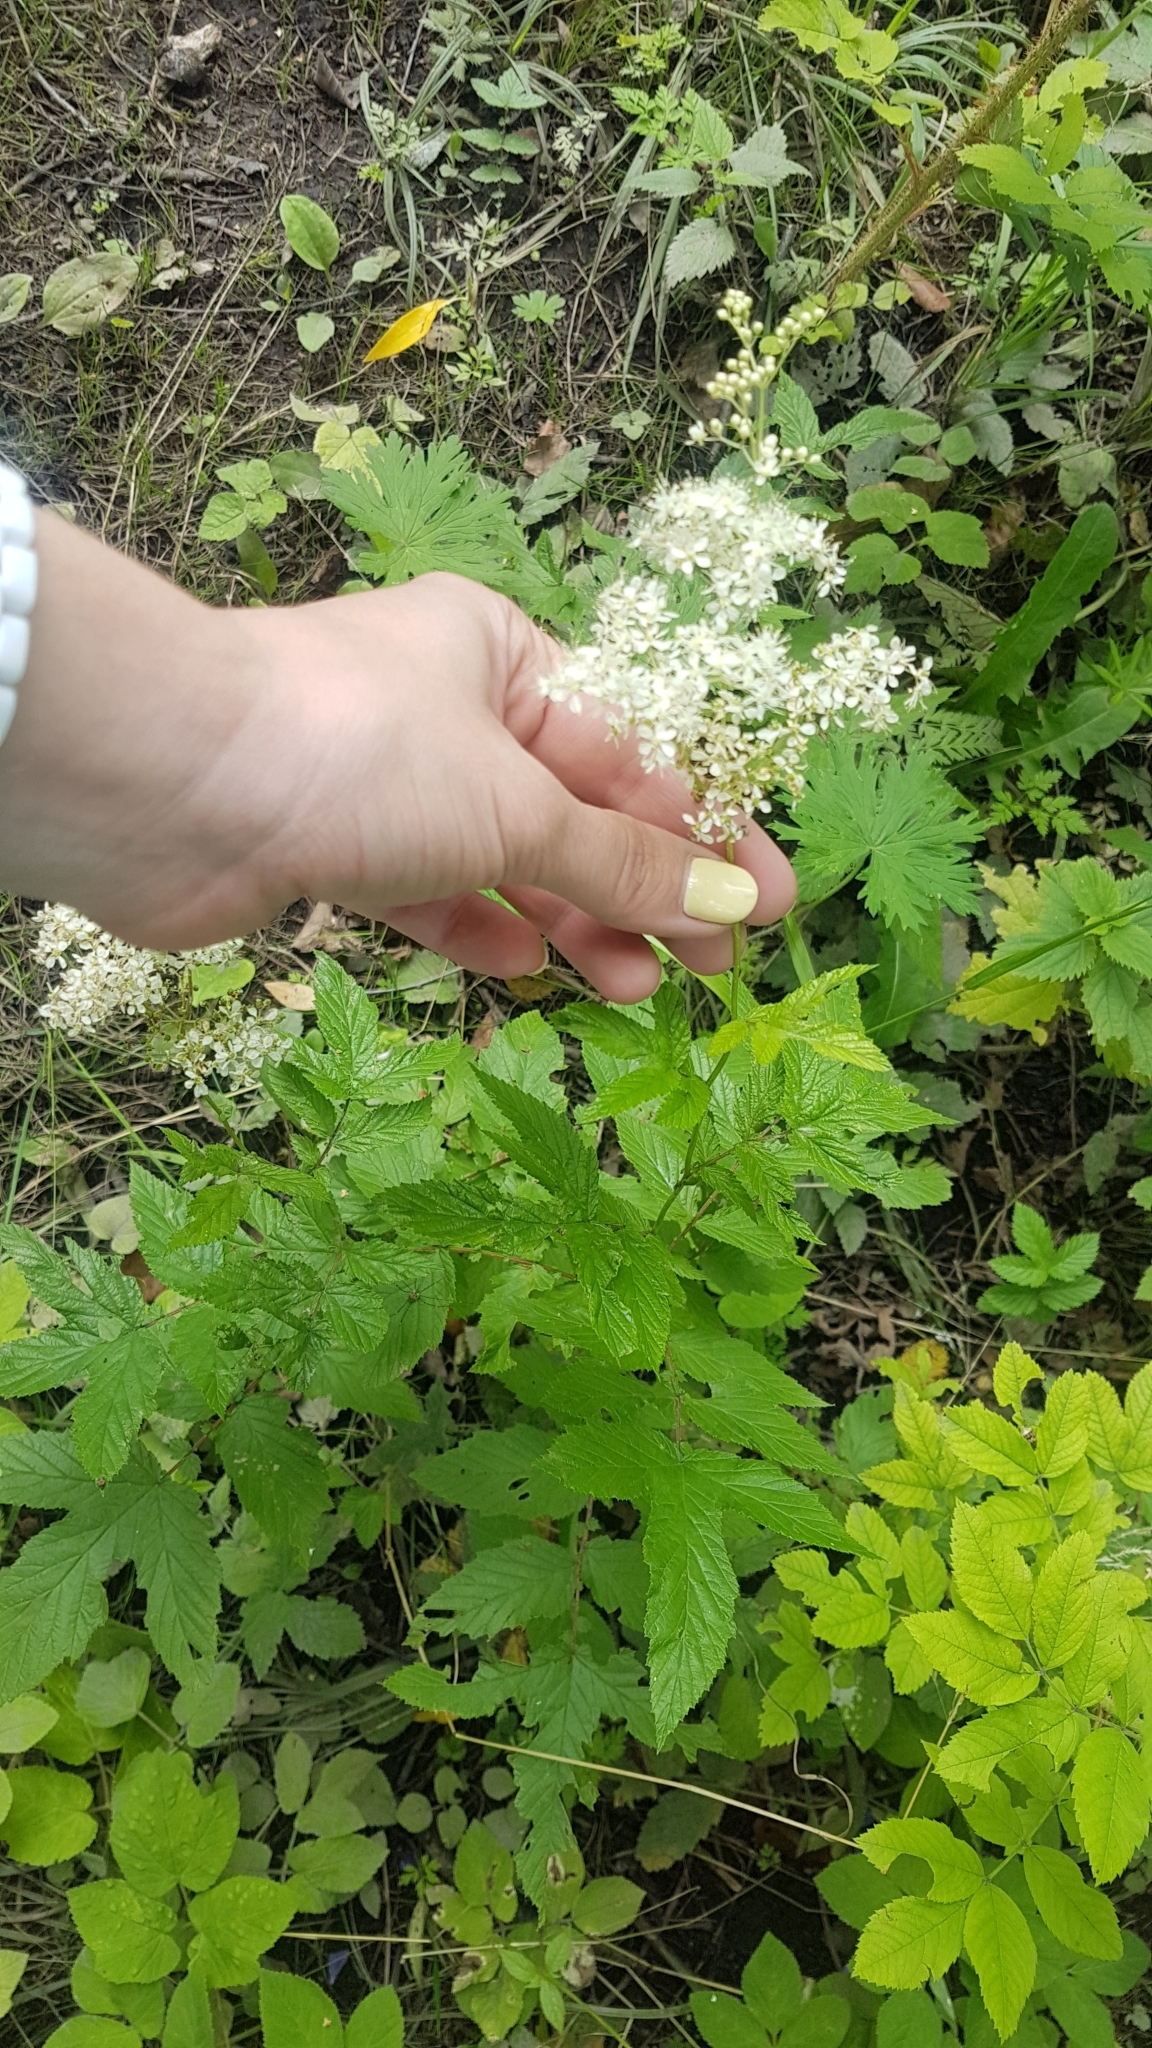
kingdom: Plantae
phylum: Tracheophyta
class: Magnoliopsida
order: Rosales
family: Rosaceae
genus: Filipendula
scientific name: Filipendula ulmaria
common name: Meadowsweet
